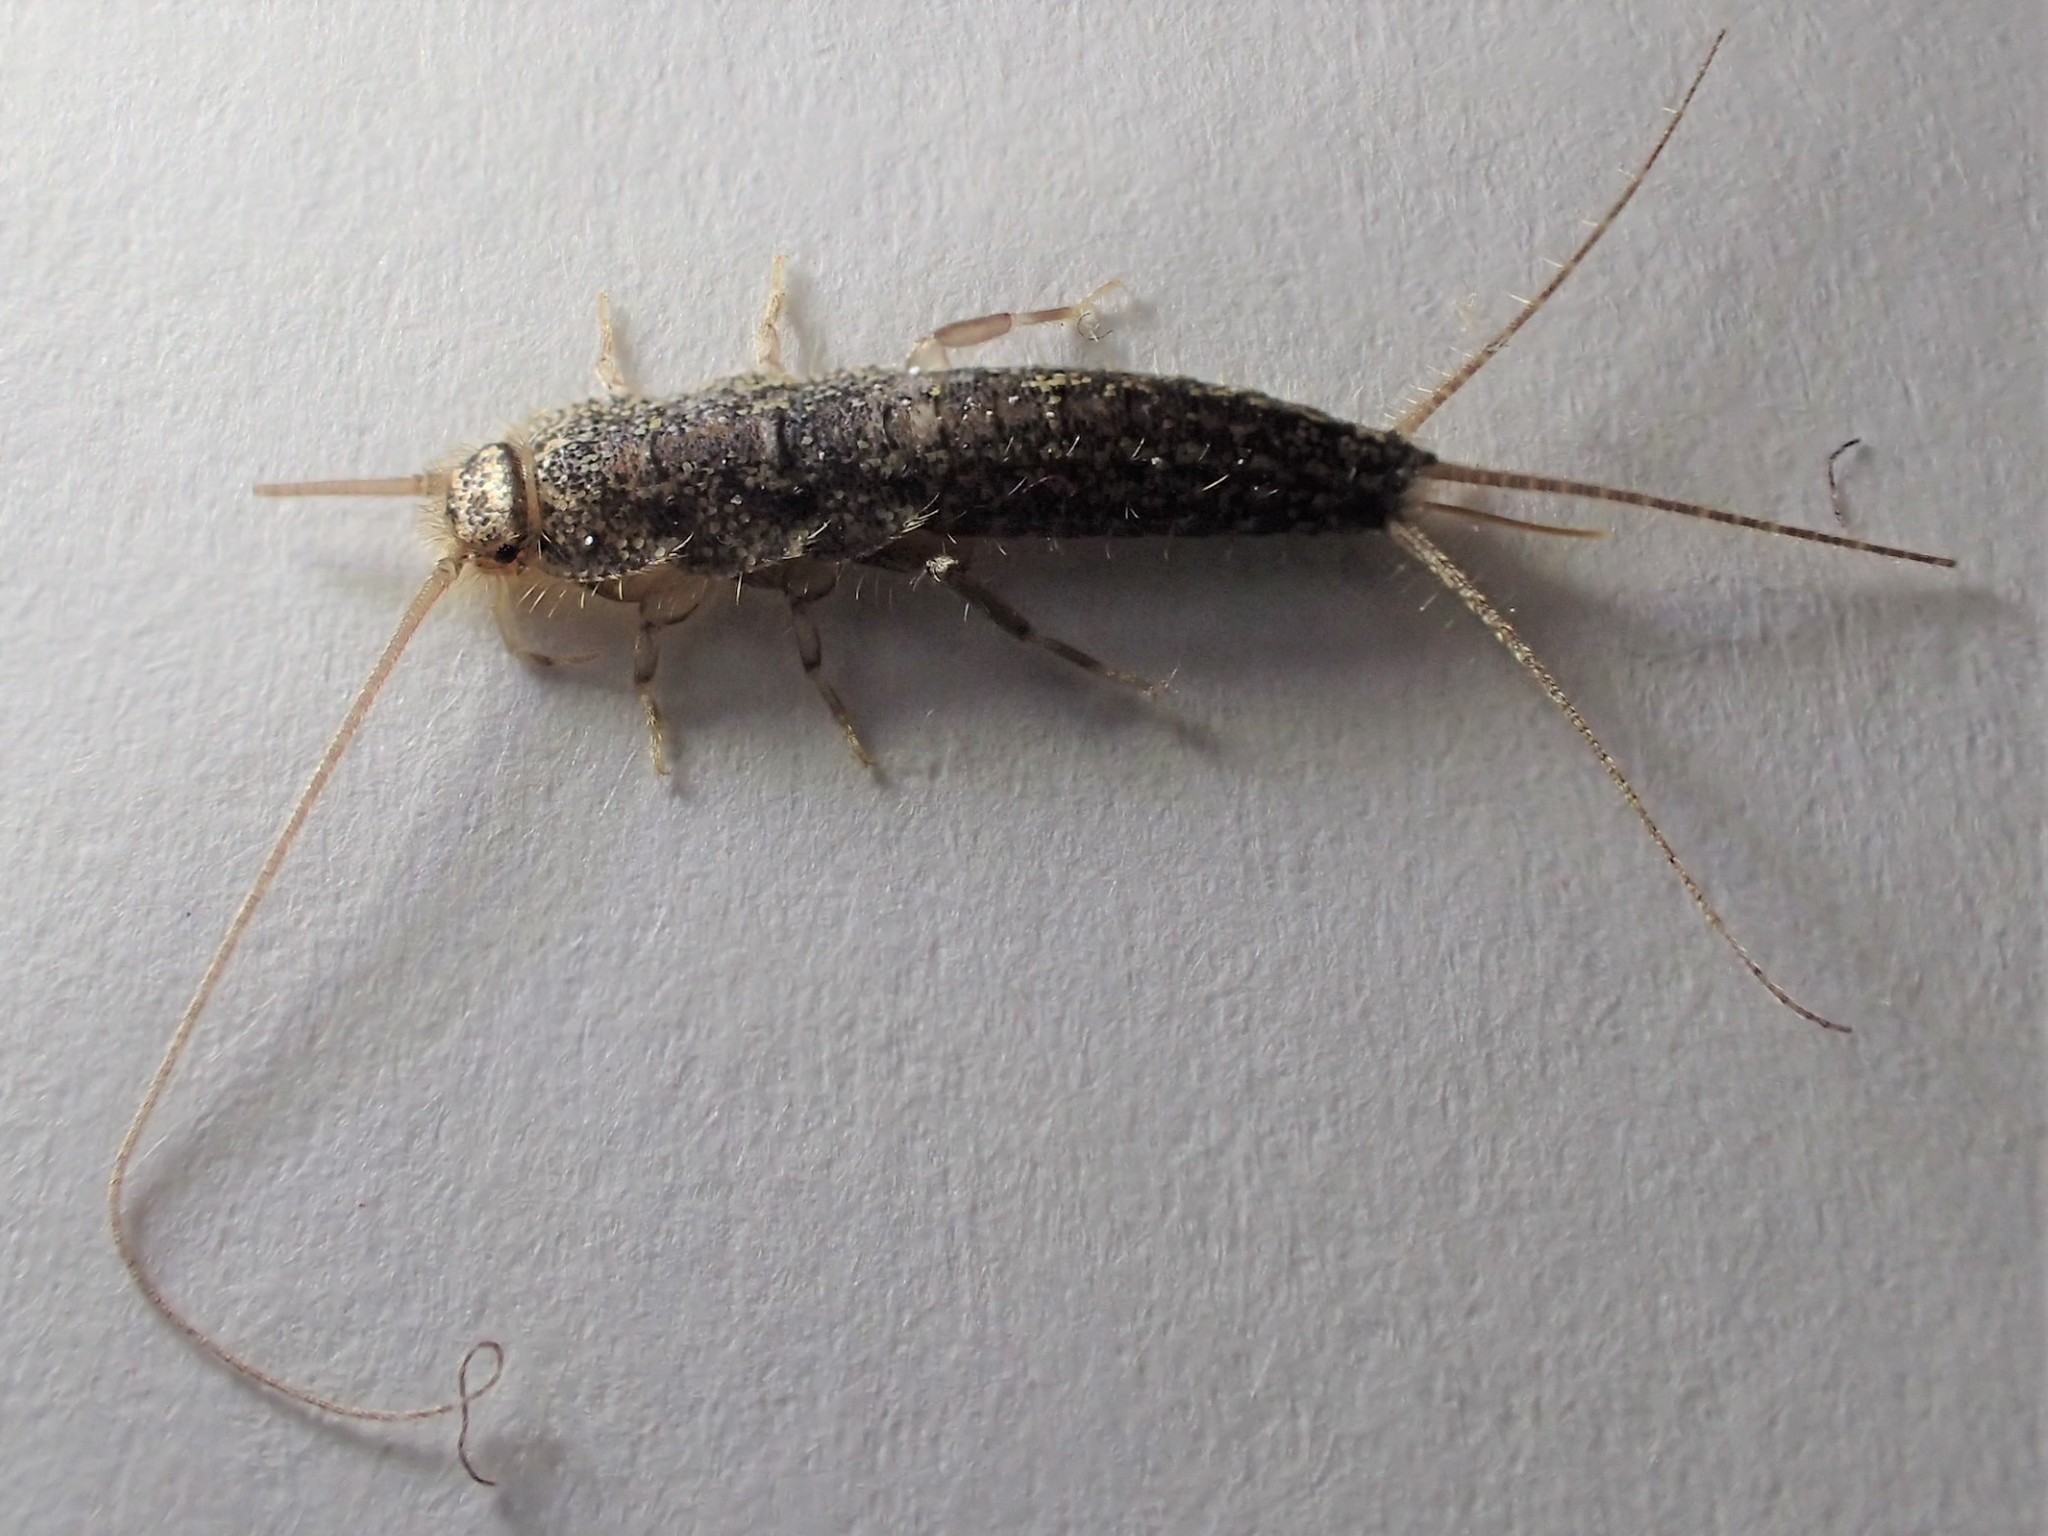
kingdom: Animalia
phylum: Arthropoda
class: Insecta
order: Zygentoma
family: Lepismatidae
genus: Ctenolepisma
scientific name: Ctenolepisma lineata
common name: Four-lined silverfish
